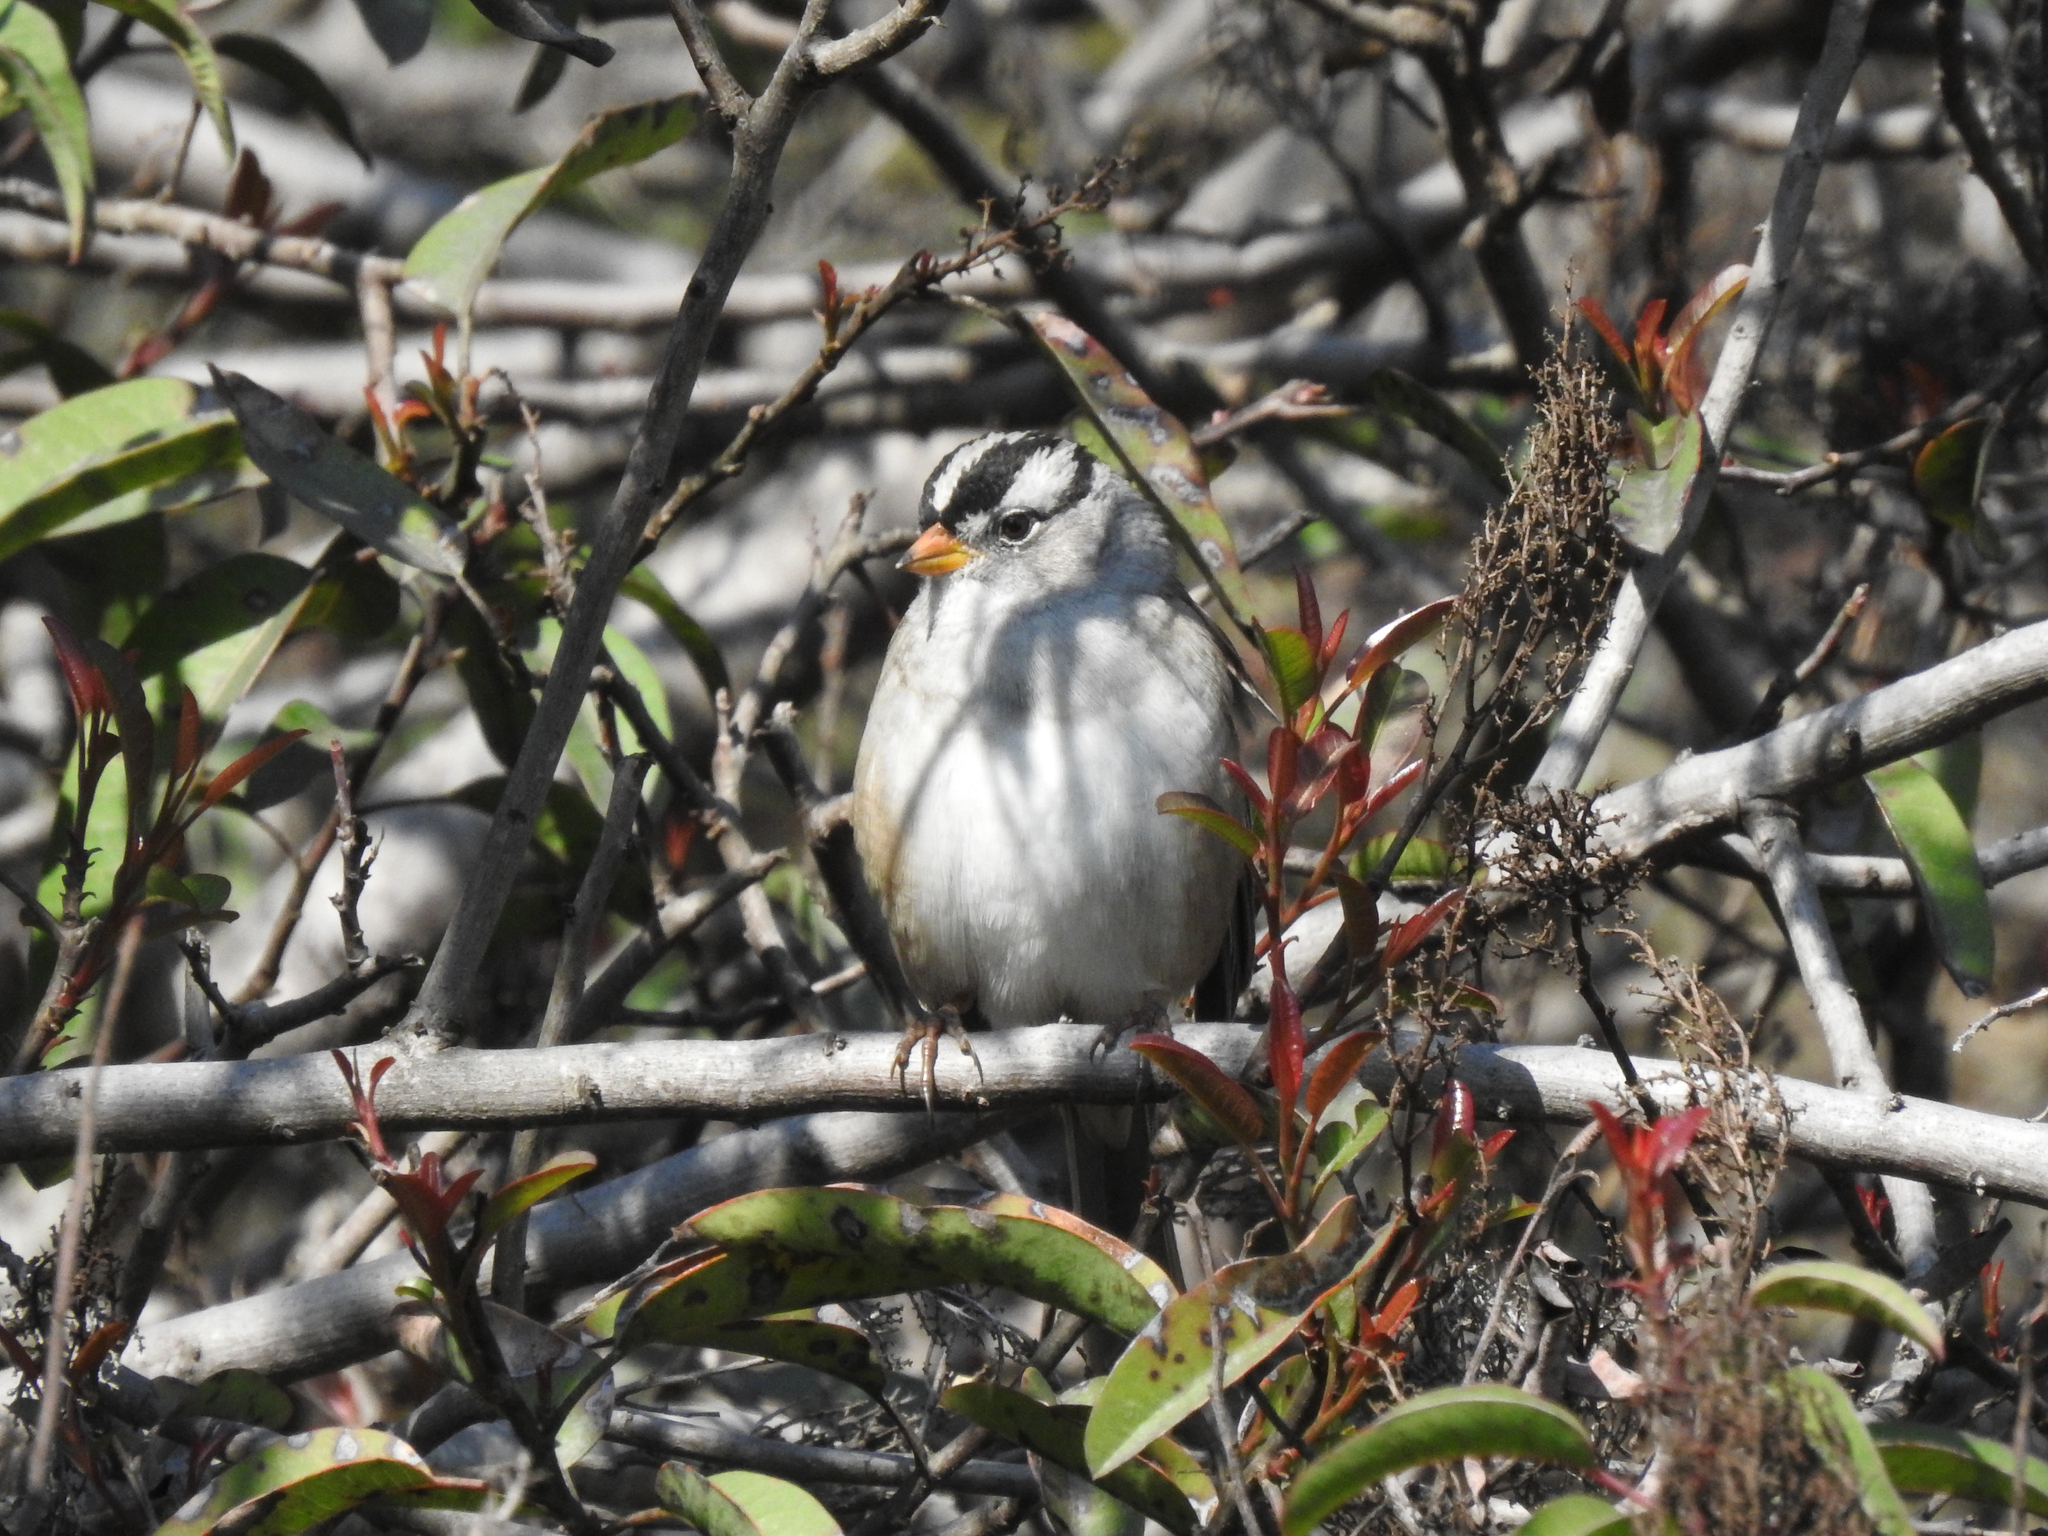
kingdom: Animalia
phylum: Chordata
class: Aves
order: Passeriformes
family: Passerellidae
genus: Zonotrichia
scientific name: Zonotrichia leucophrys
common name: White-crowned sparrow
